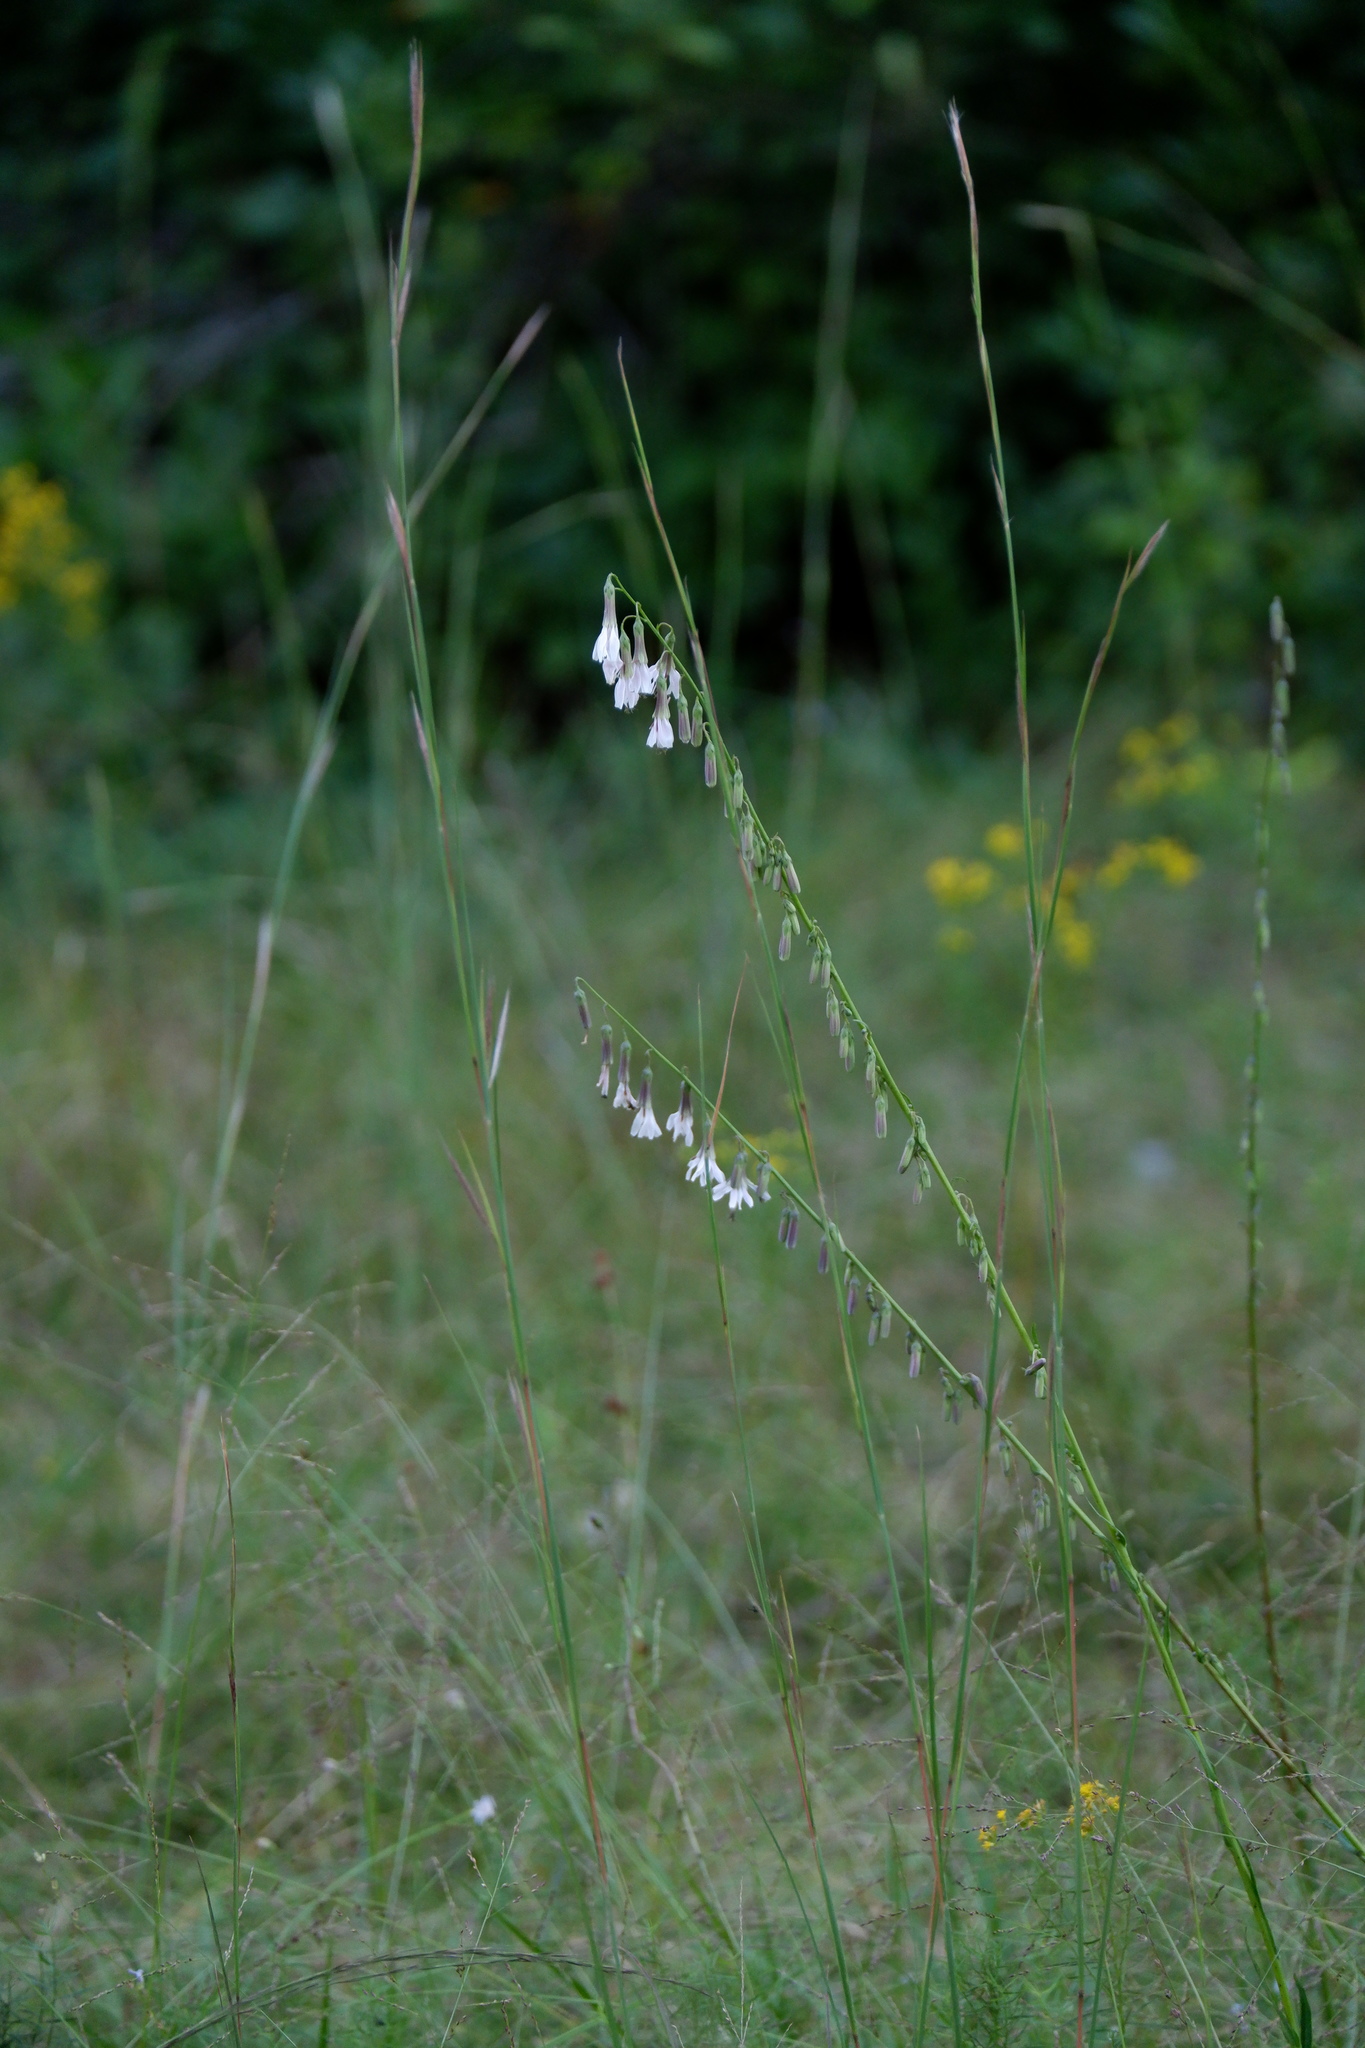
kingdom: Plantae
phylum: Tracheophyta
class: Magnoliopsida
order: Asterales
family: Asteraceae
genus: Nabalus
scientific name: Nabalus autumnalis
